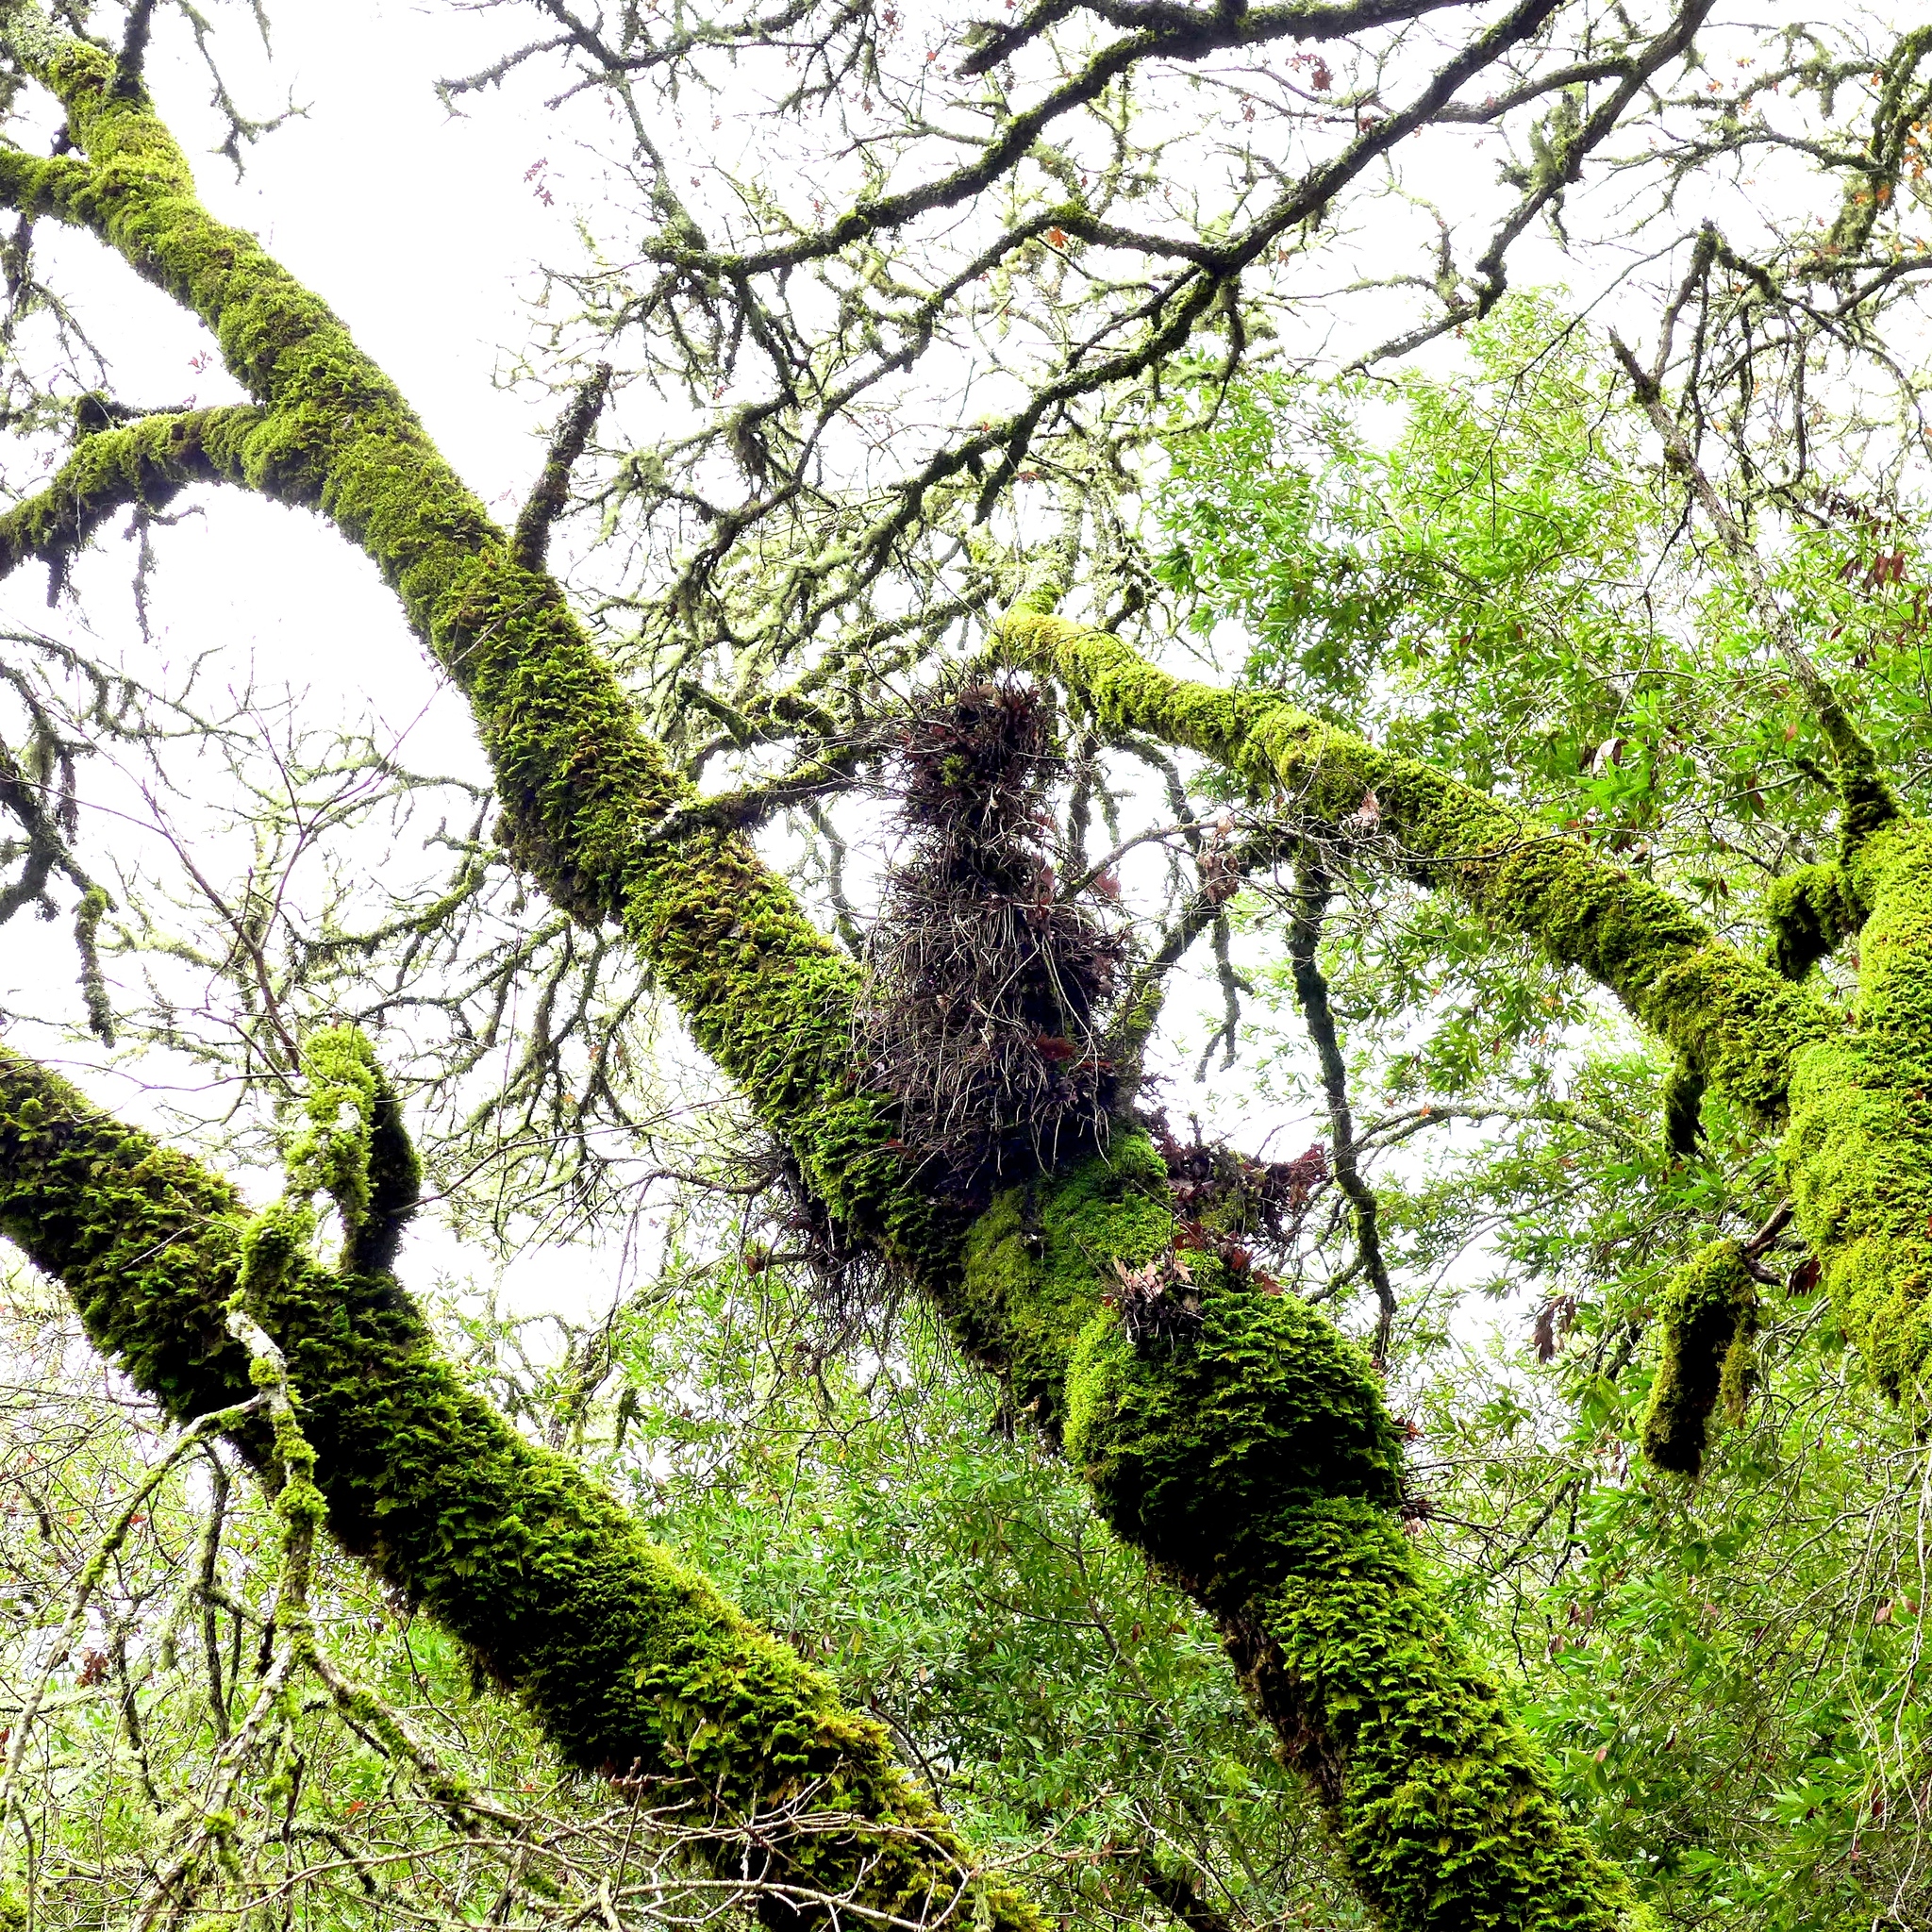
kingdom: Plantae
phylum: Tracheophyta
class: Magnoliopsida
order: Sapindales
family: Anacardiaceae
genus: Toxicodendron
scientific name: Toxicodendron diversilobum
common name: Pacific poison-oak
